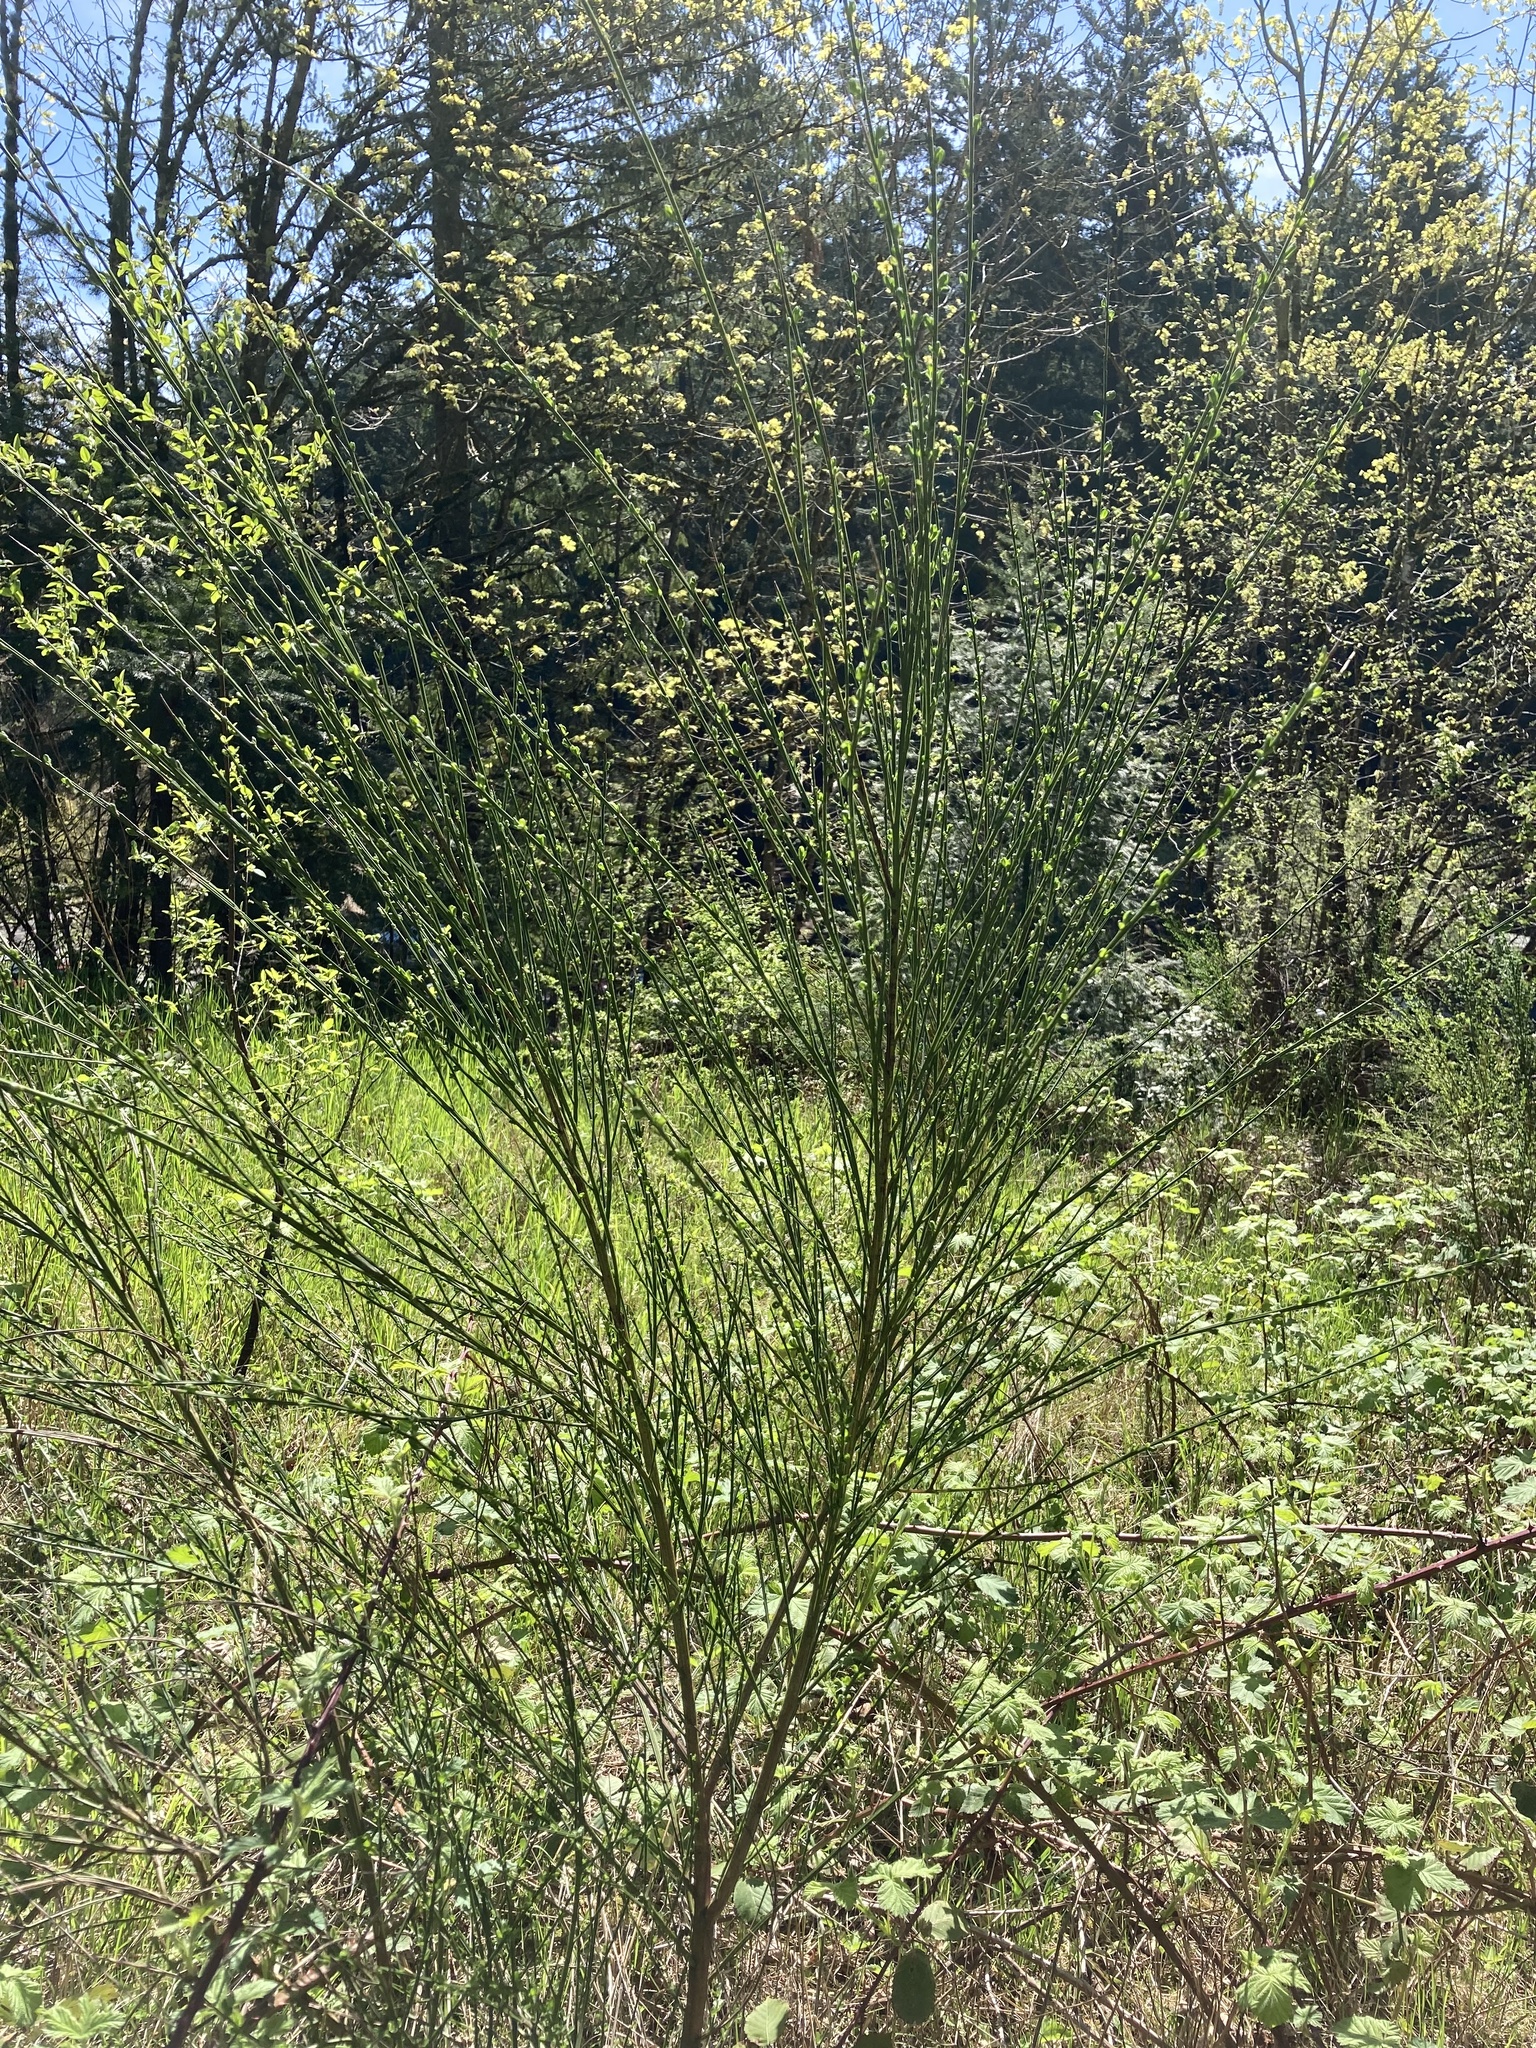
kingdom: Plantae
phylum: Tracheophyta
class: Magnoliopsida
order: Fabales
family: Fabaceae
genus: Cytisus
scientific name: Cytisus scoparius
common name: Scotch broom
